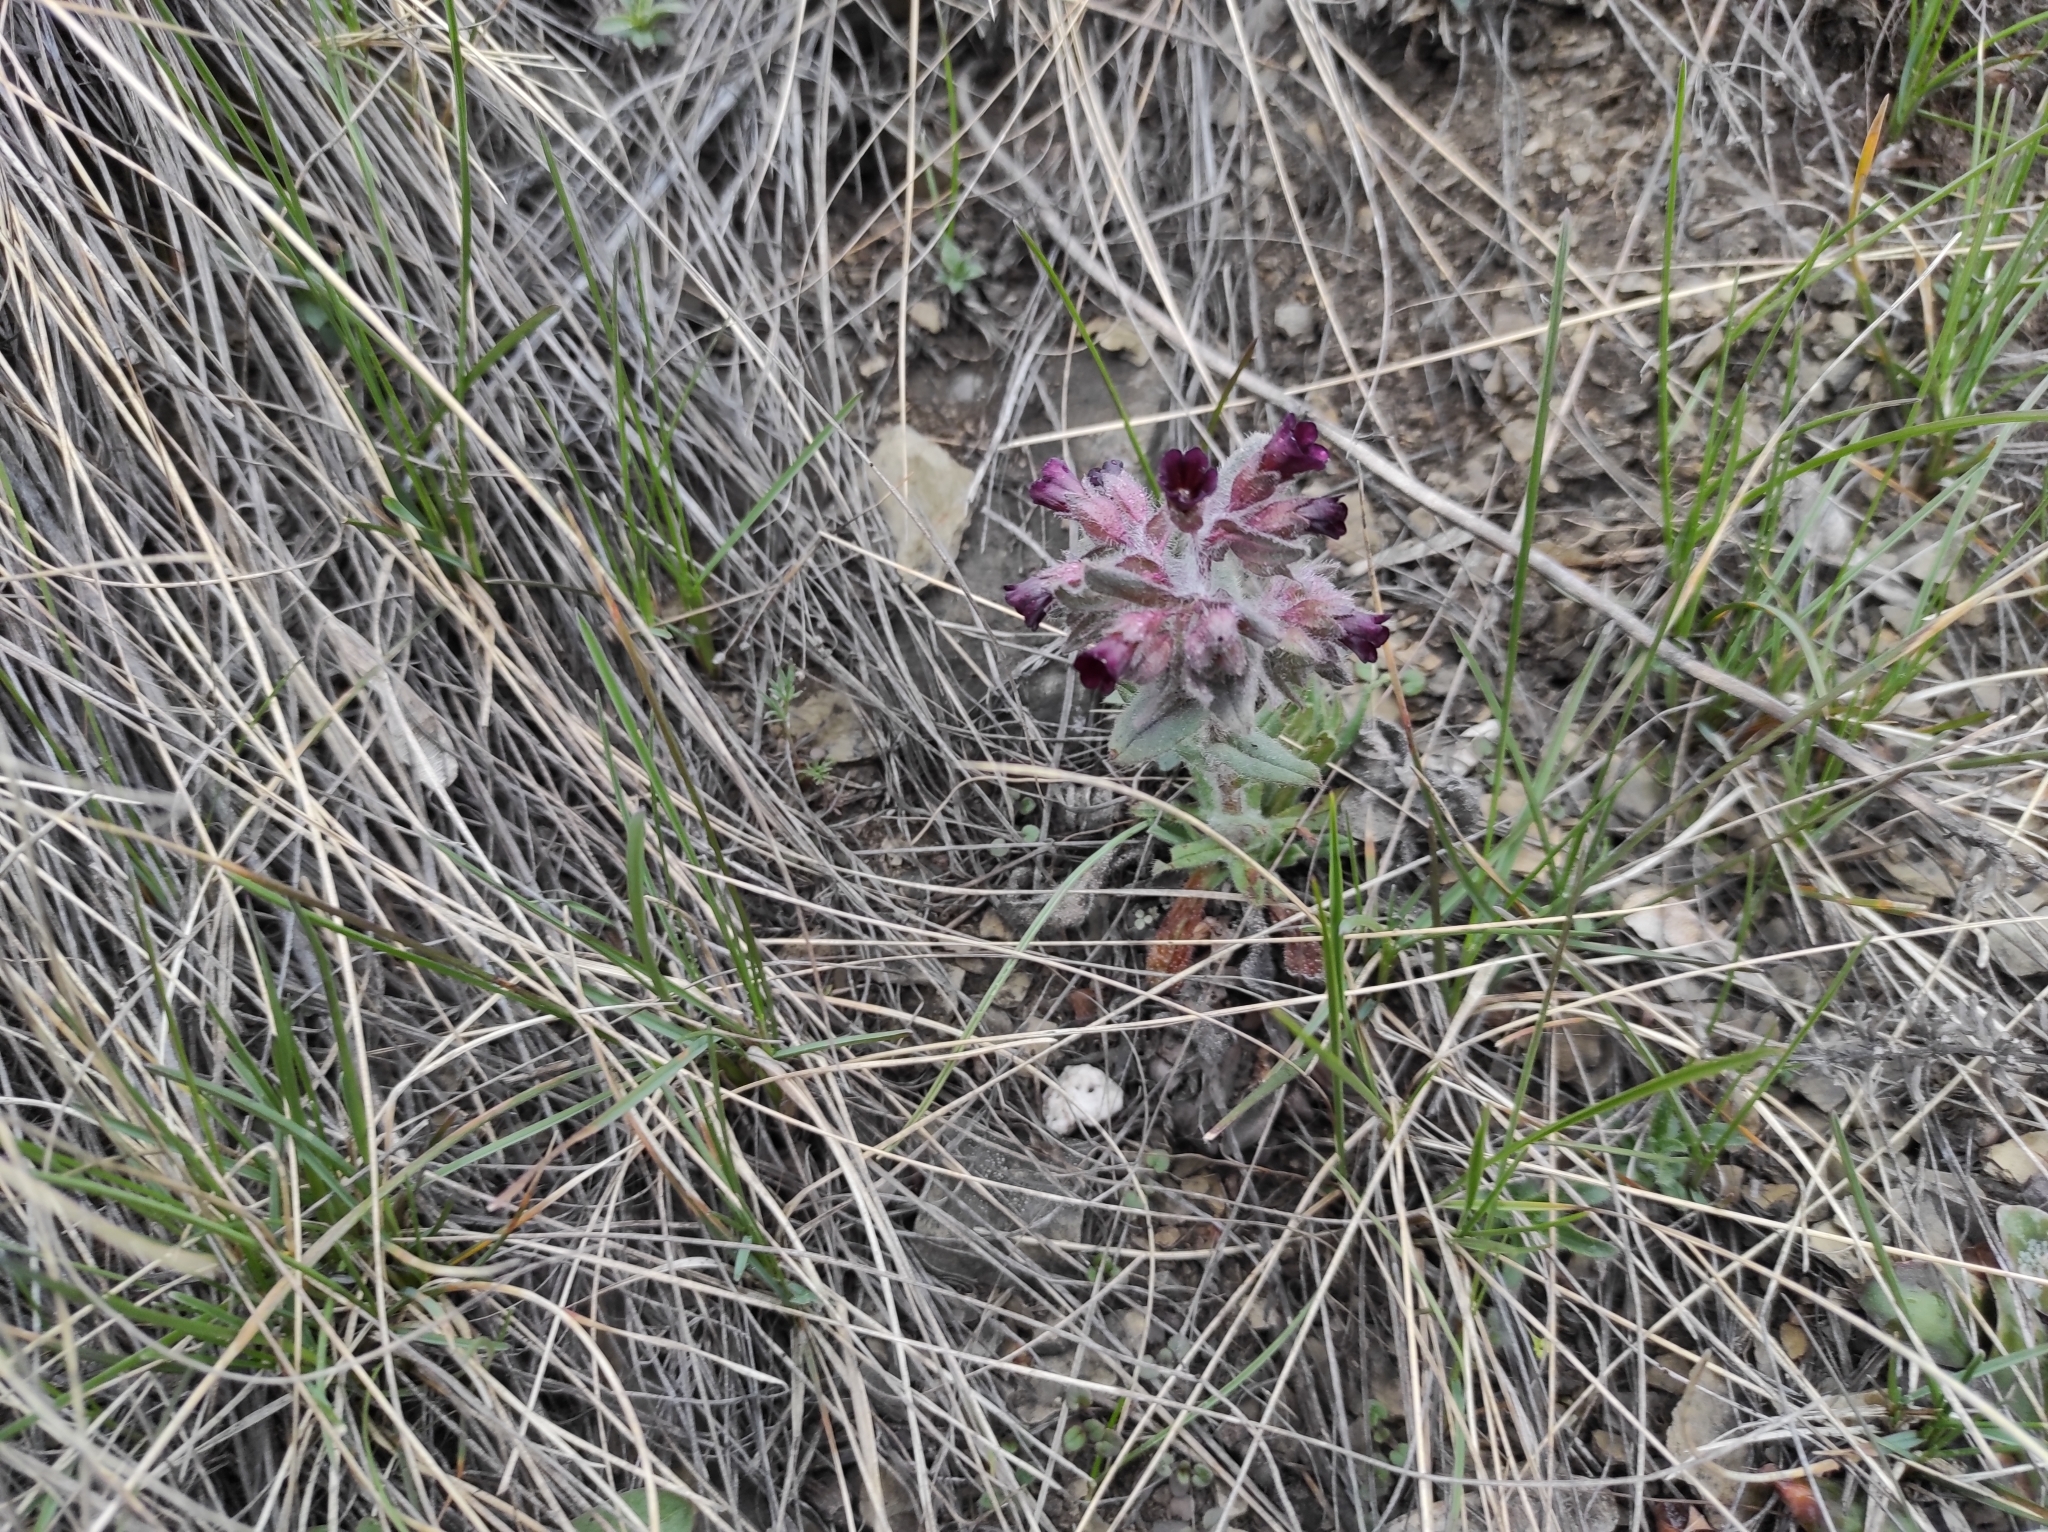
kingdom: Plantae
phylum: Tracheophyta
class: Magnoliopsida
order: Boraginales
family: Boraginaceae
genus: Nonea
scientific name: Nonea pulla
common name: Brown nonea
